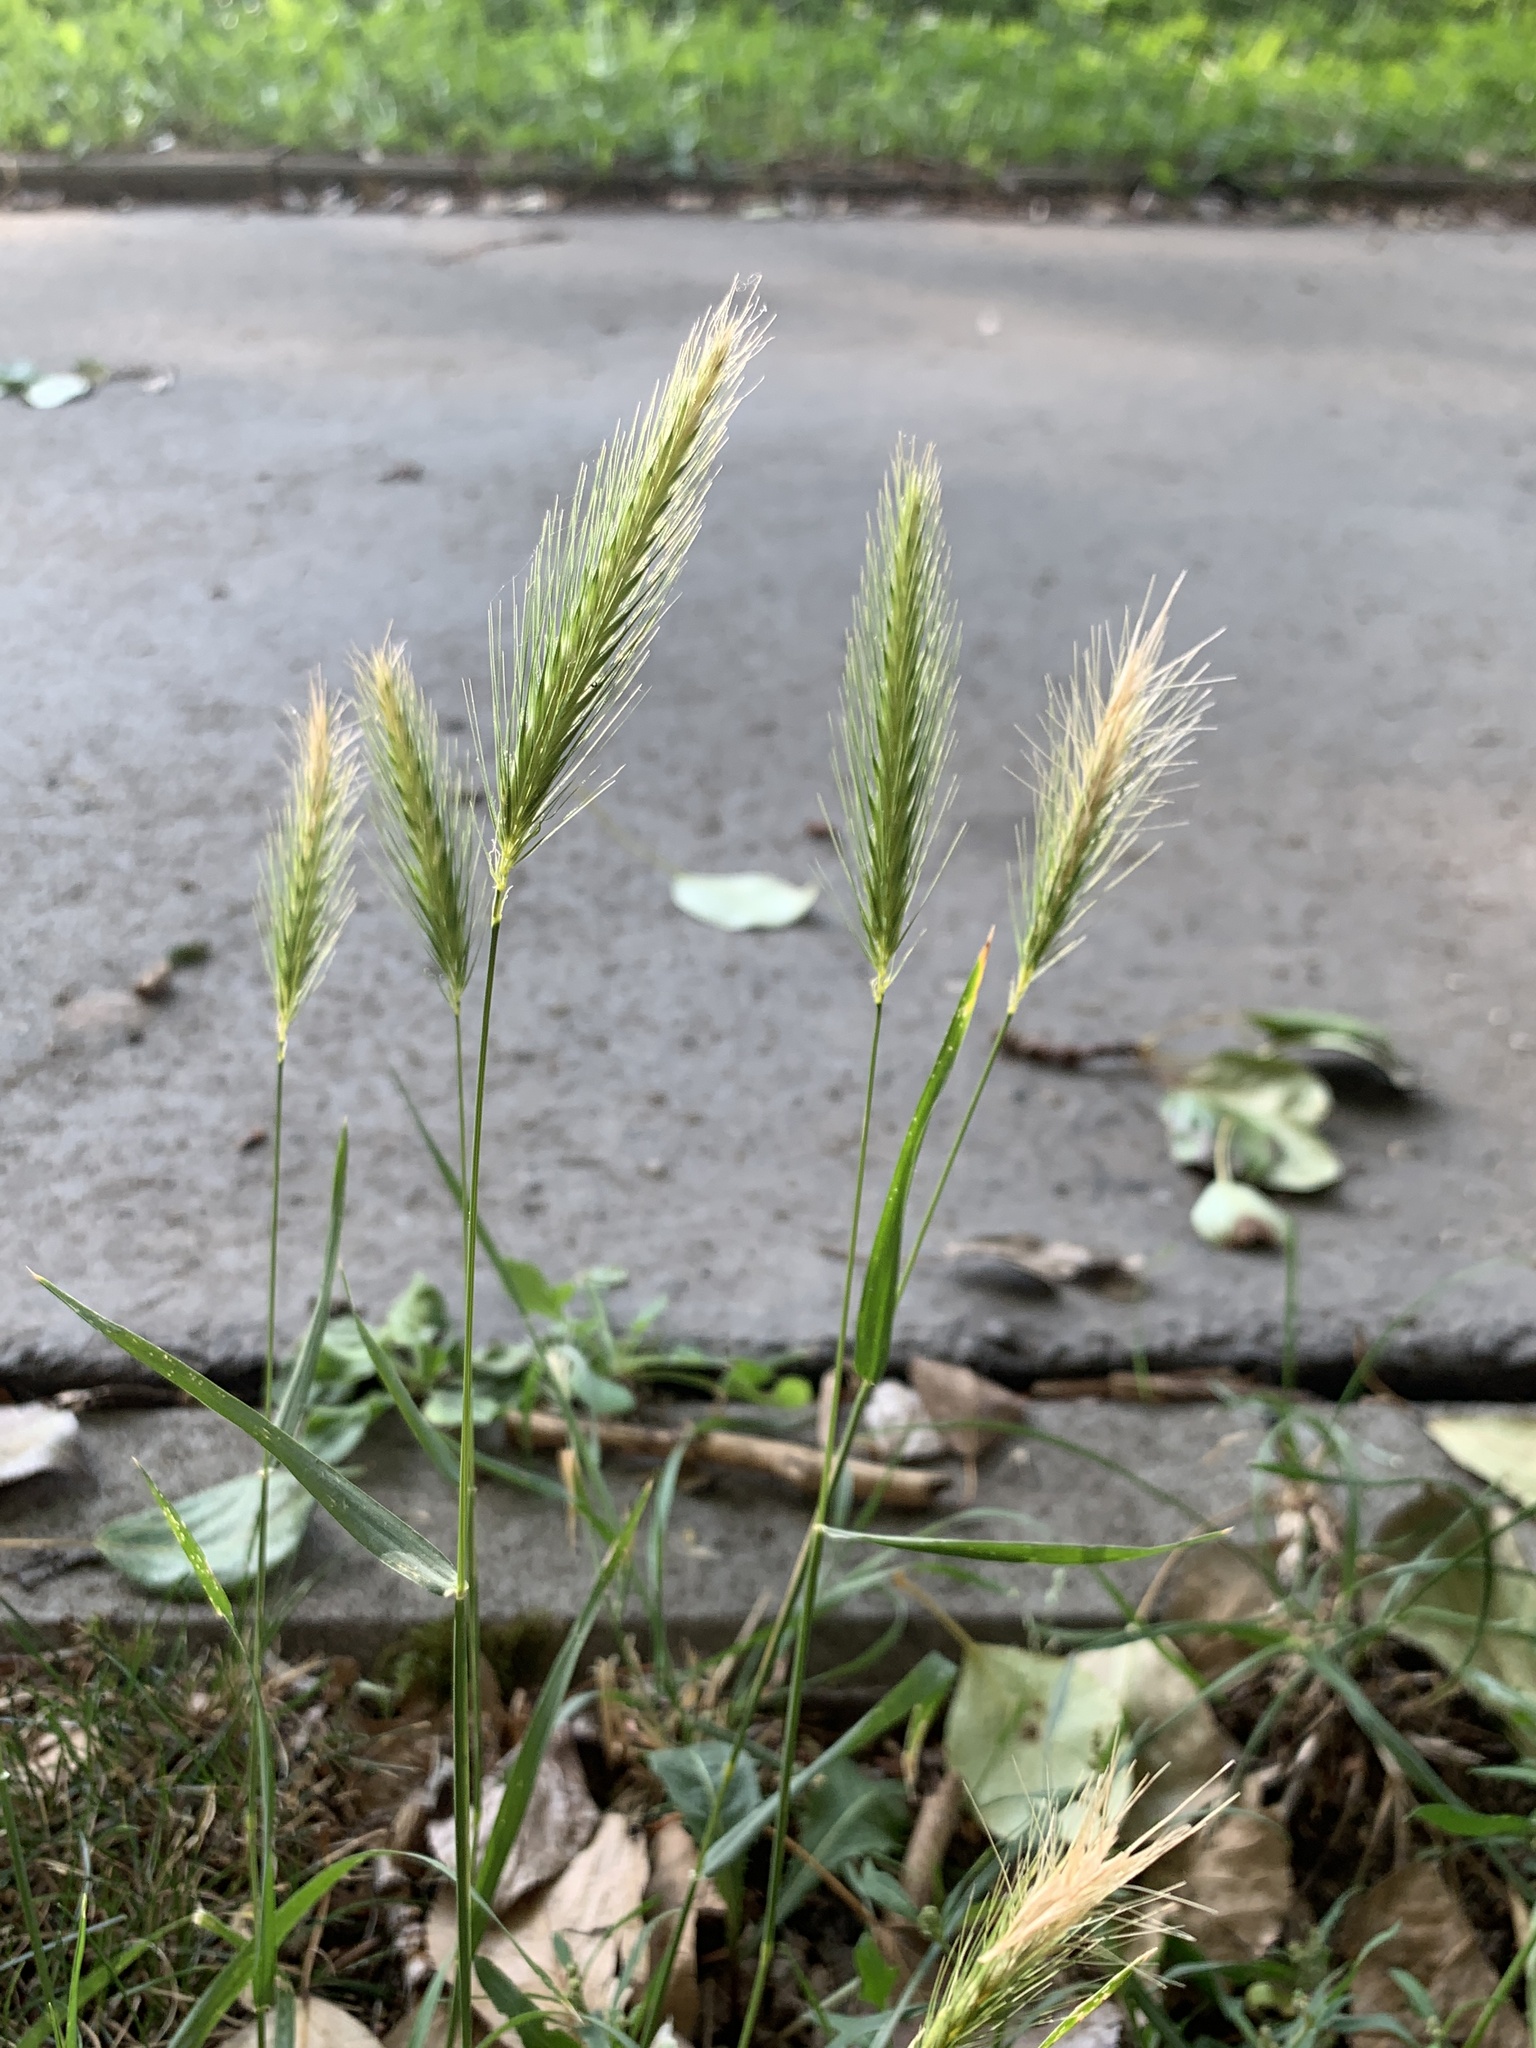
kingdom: Plantae
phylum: Tracheophyta
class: Liliopsida
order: Poales
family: Poaceae
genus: Hordeum
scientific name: Hordeum murinum
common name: Wall barley
